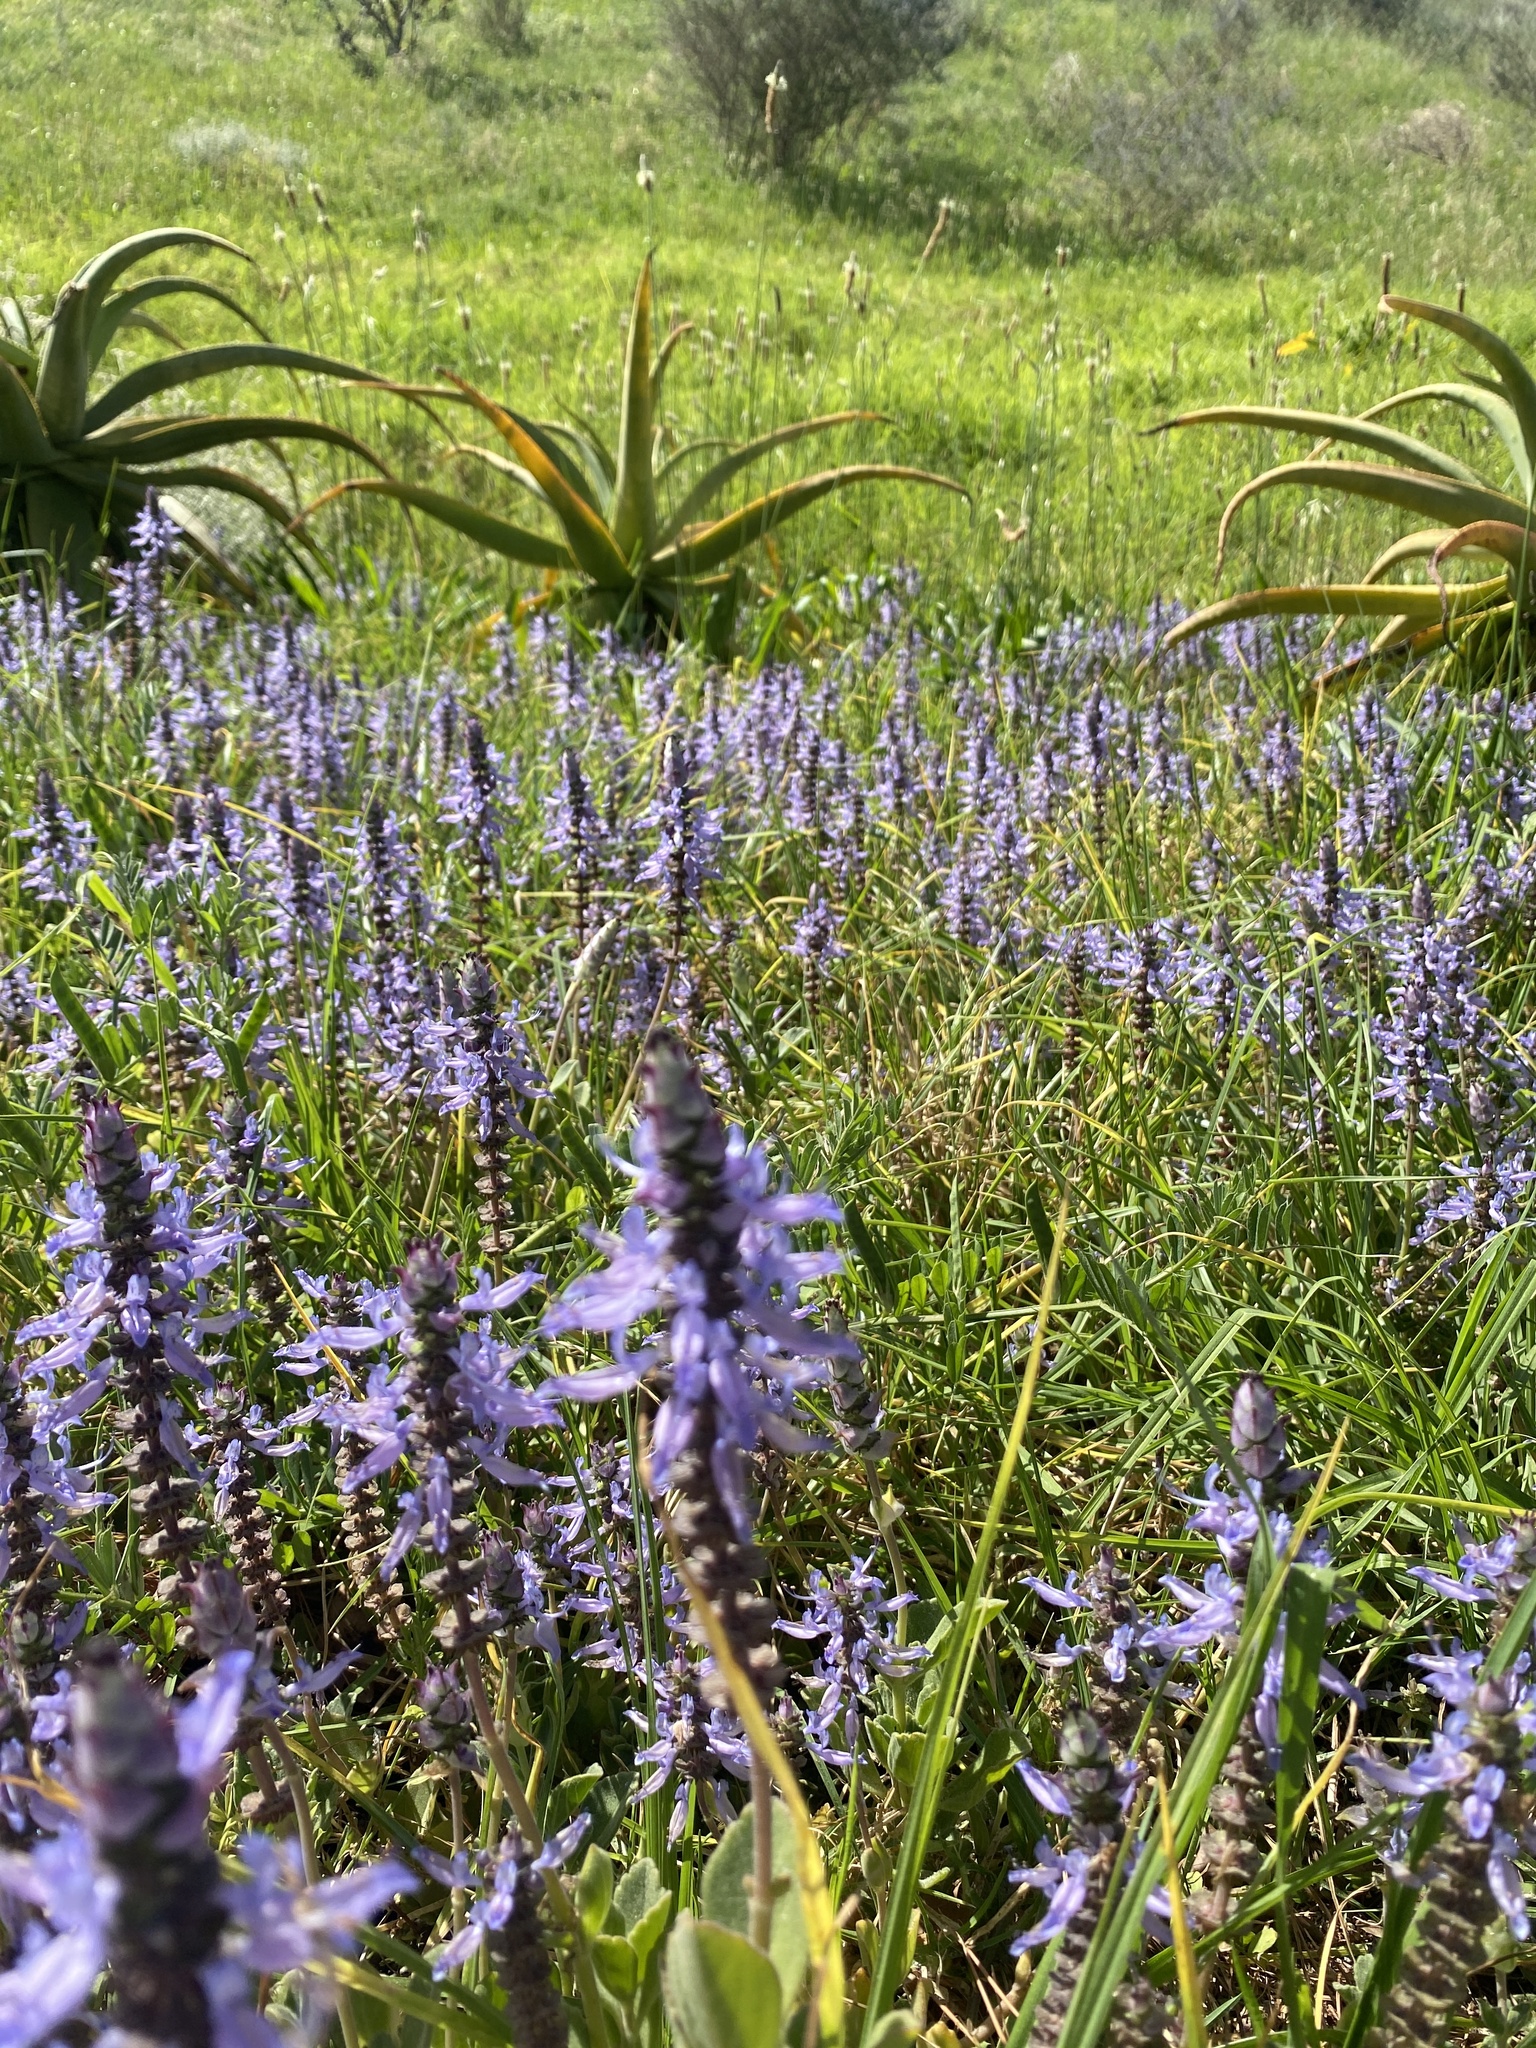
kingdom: Plantae
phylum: Tracheophyta
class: Magnoliopsida
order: Lamiales
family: Lamiaceae
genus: Coleus
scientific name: Coleus neochilus
